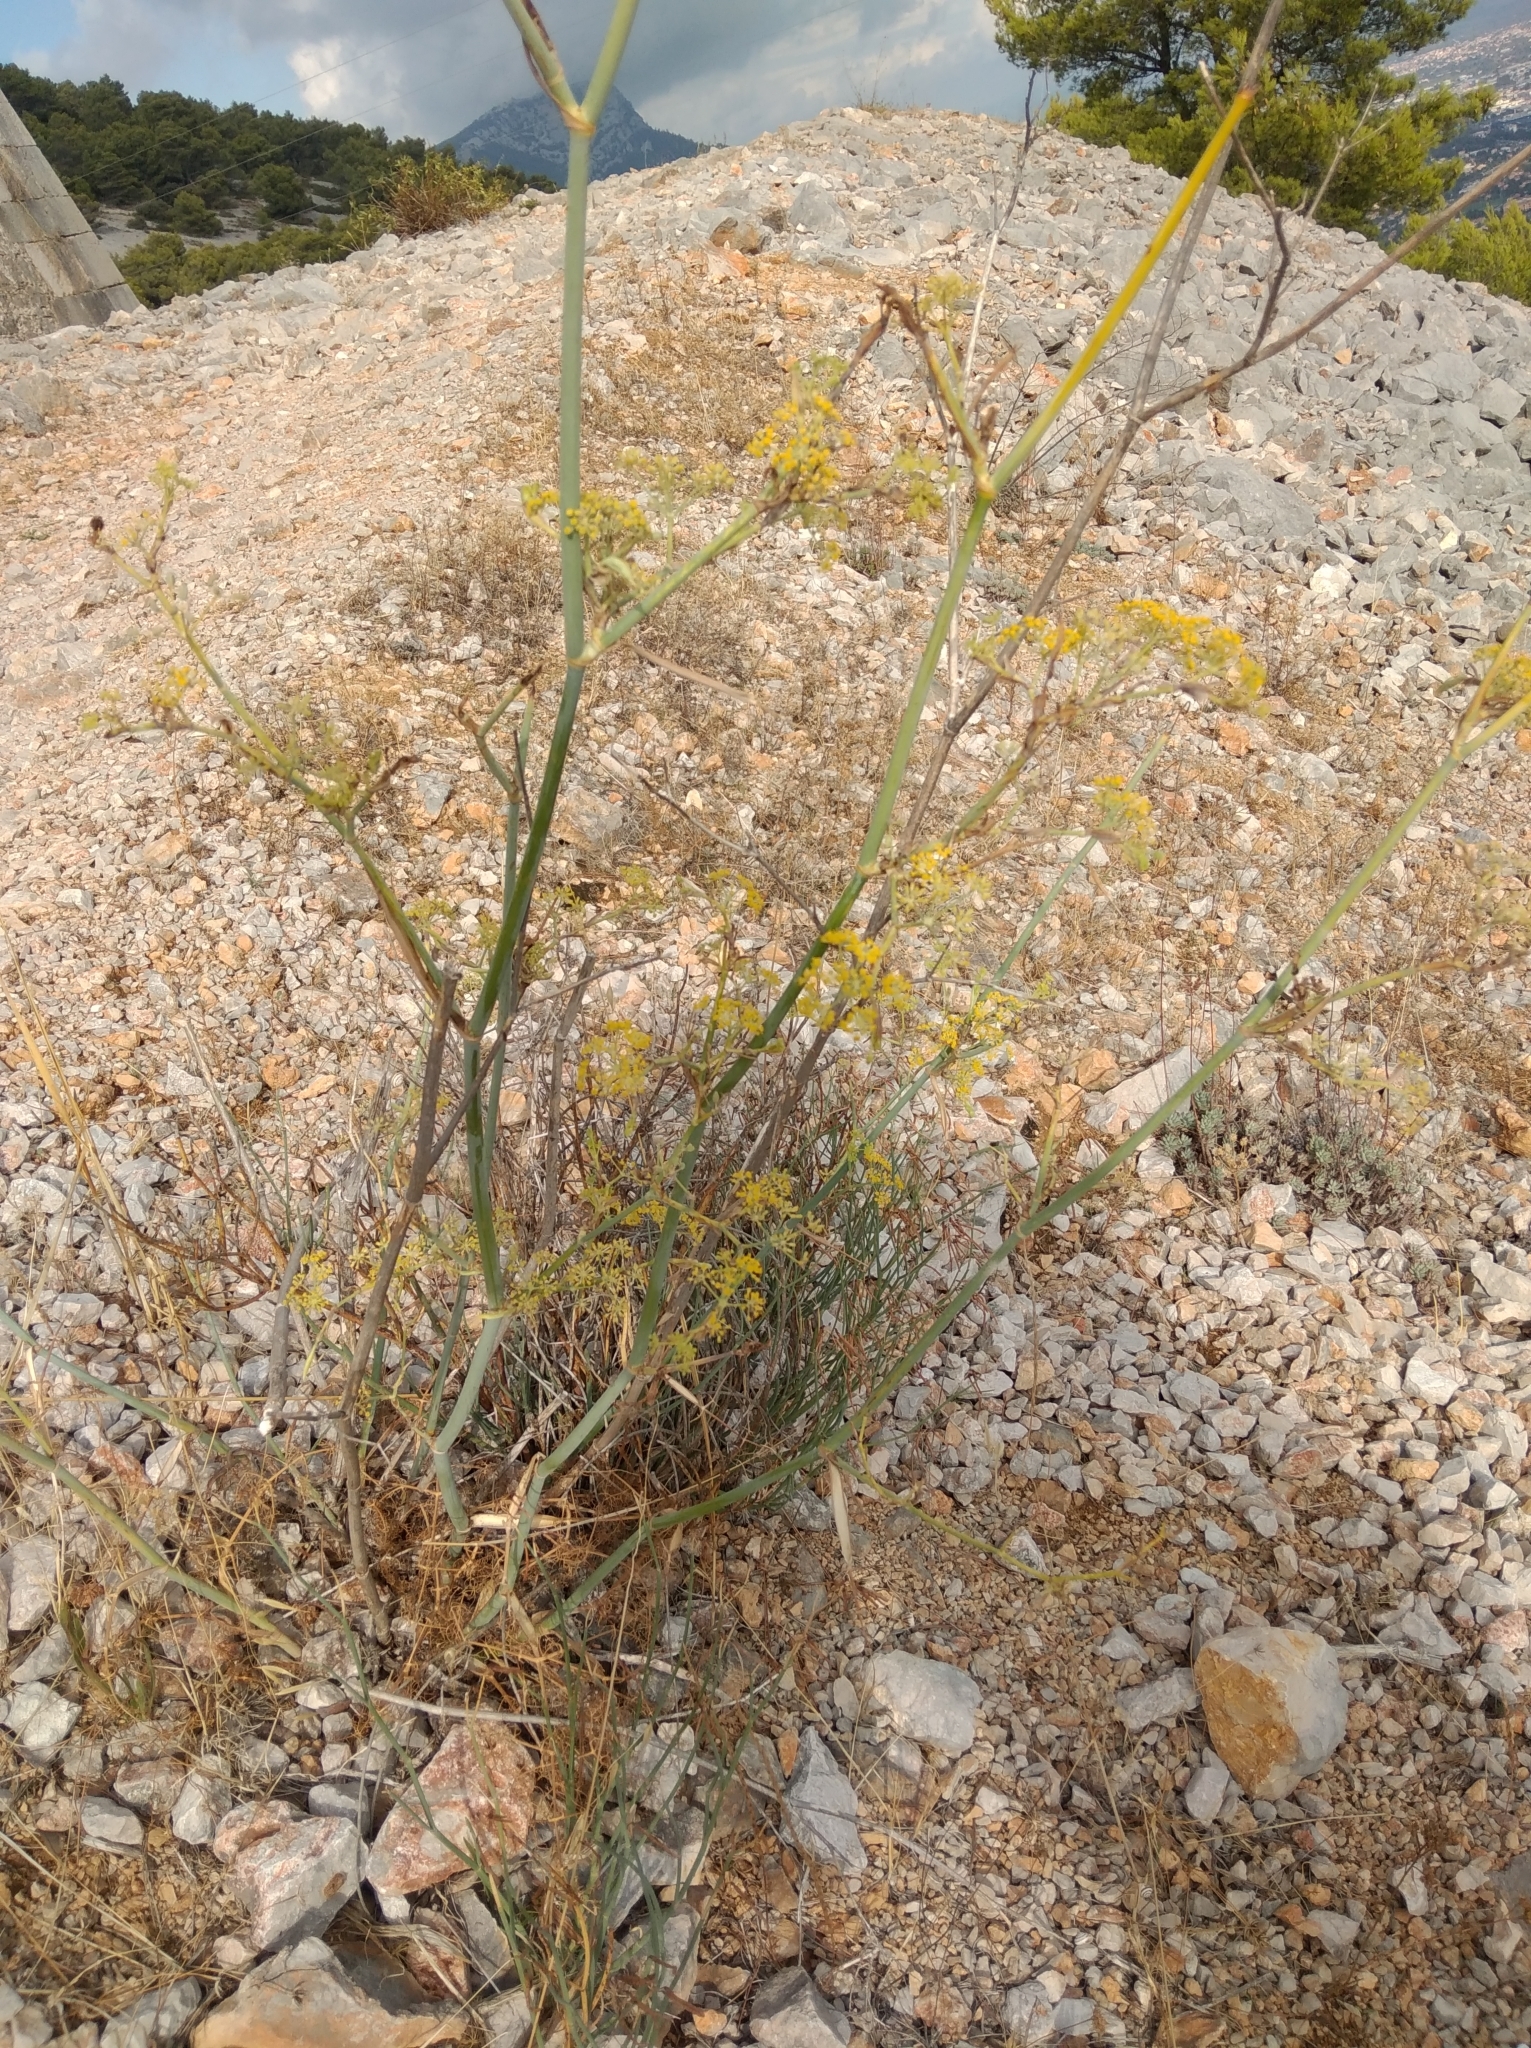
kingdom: Plantae
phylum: Tracheophyta
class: Magnoliopsida
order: Apiales
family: Apiaceae
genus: Foeniculum
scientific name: Foeniculum vulgare
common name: Fennel
